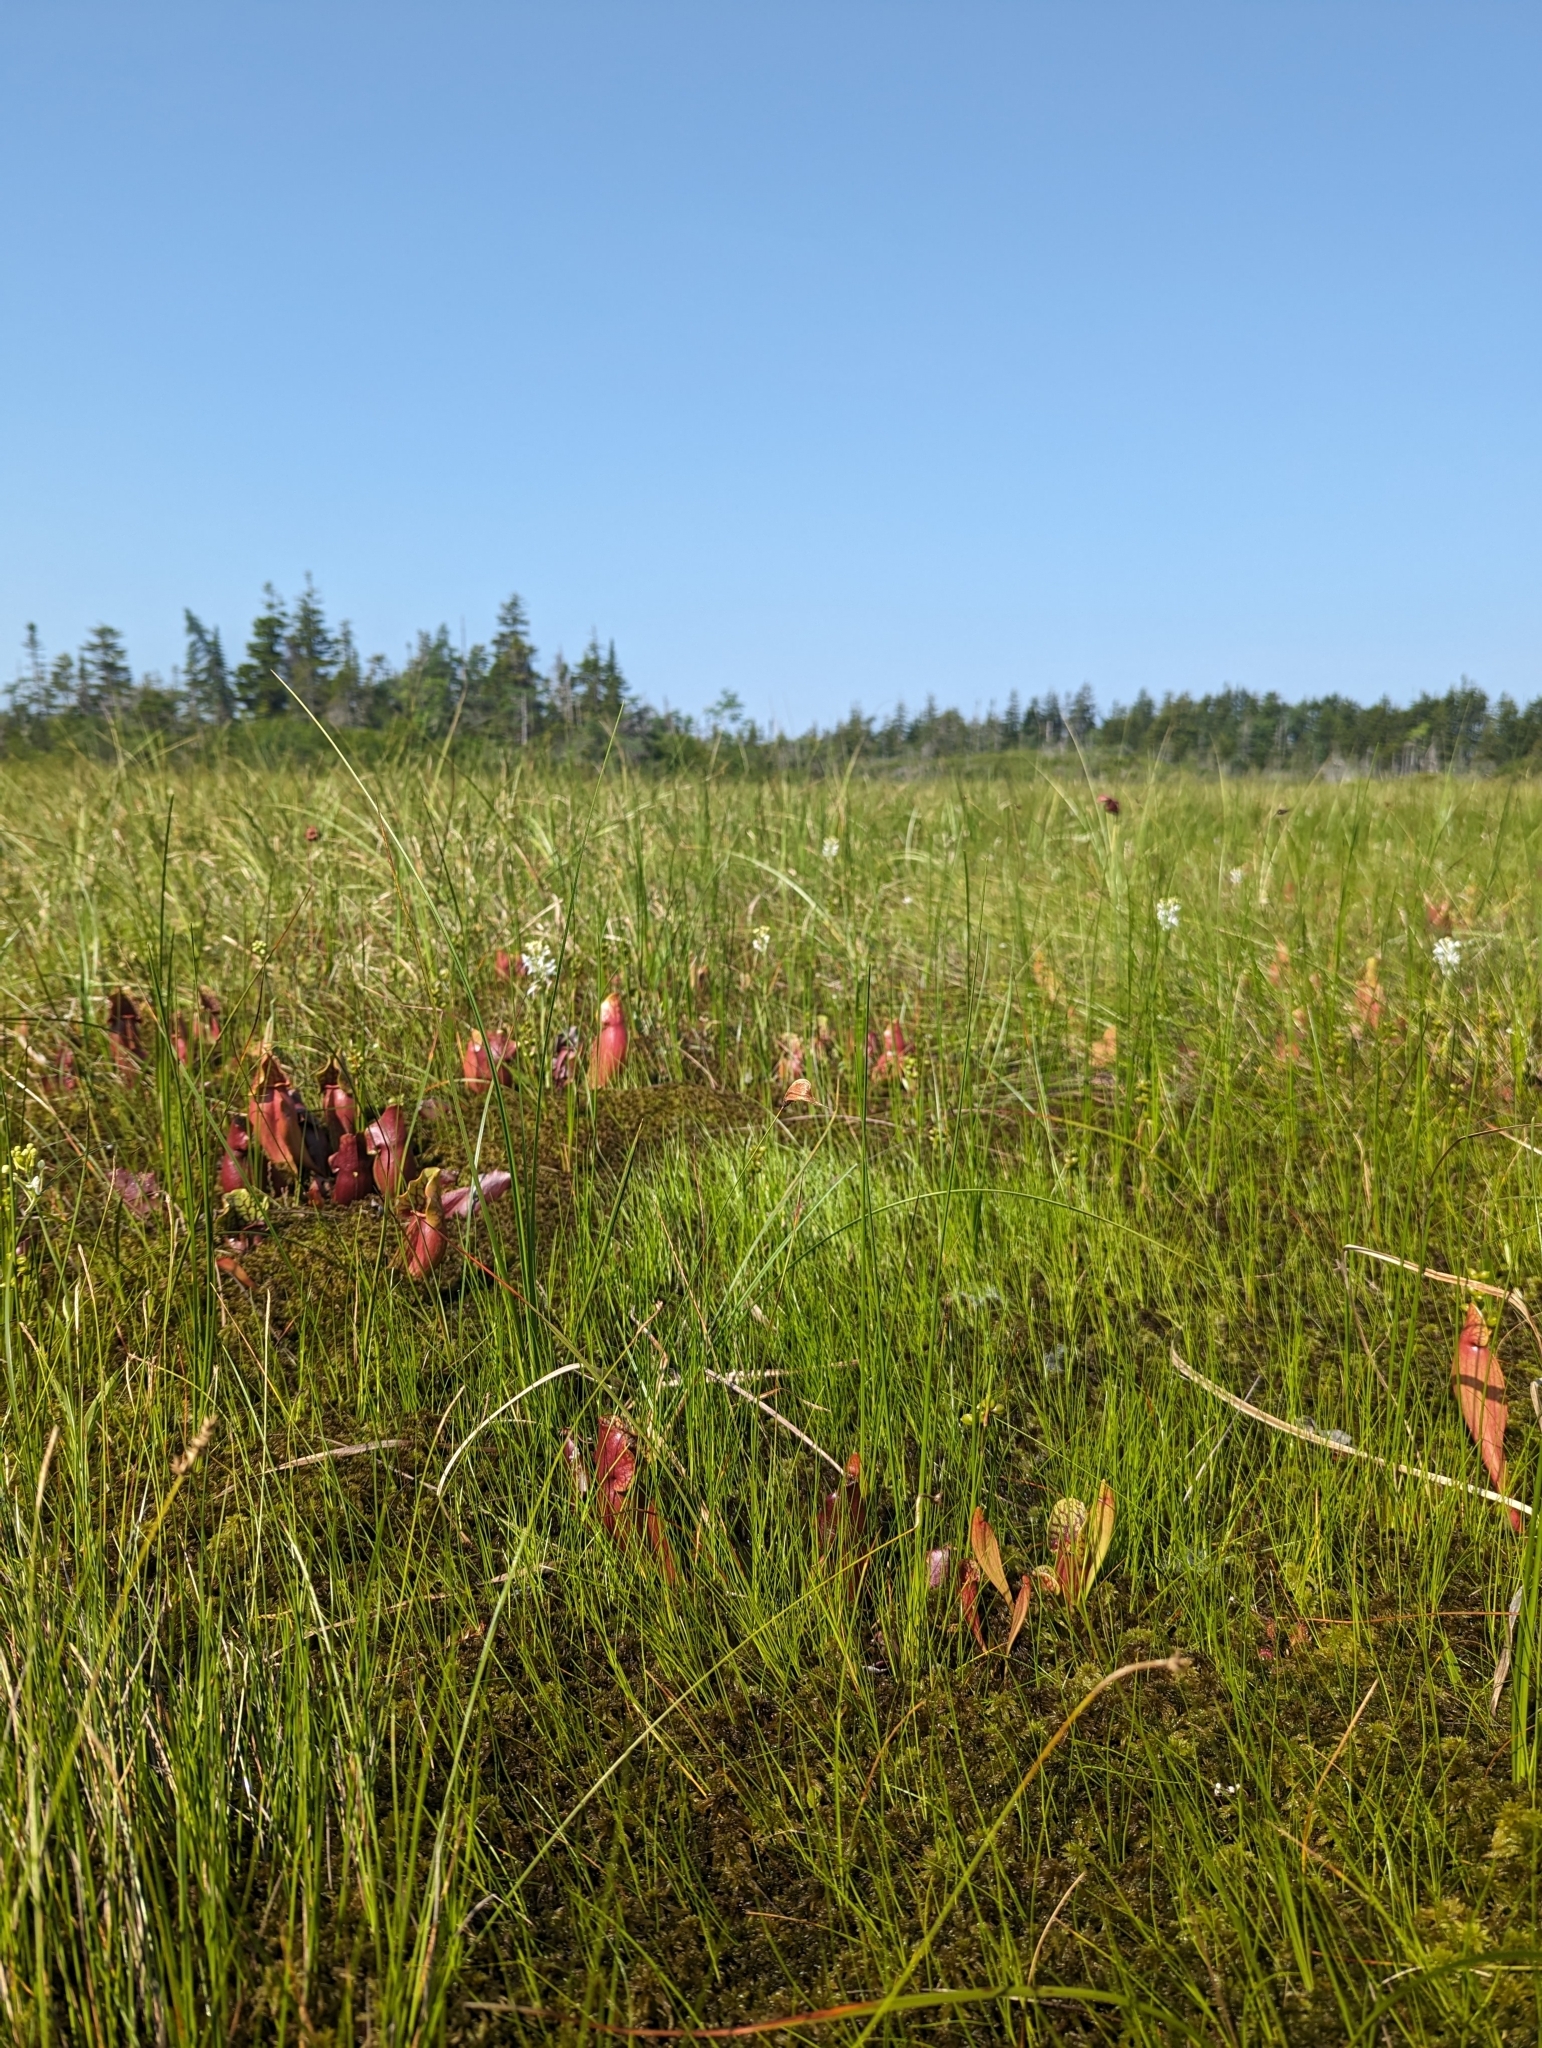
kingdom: Plantae
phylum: Tracheophyta
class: Liliopsida
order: Poales
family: Cyperaceae
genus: Eriophorum
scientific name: Eriophorum chamissonis
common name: Chamisso's cottongrass
